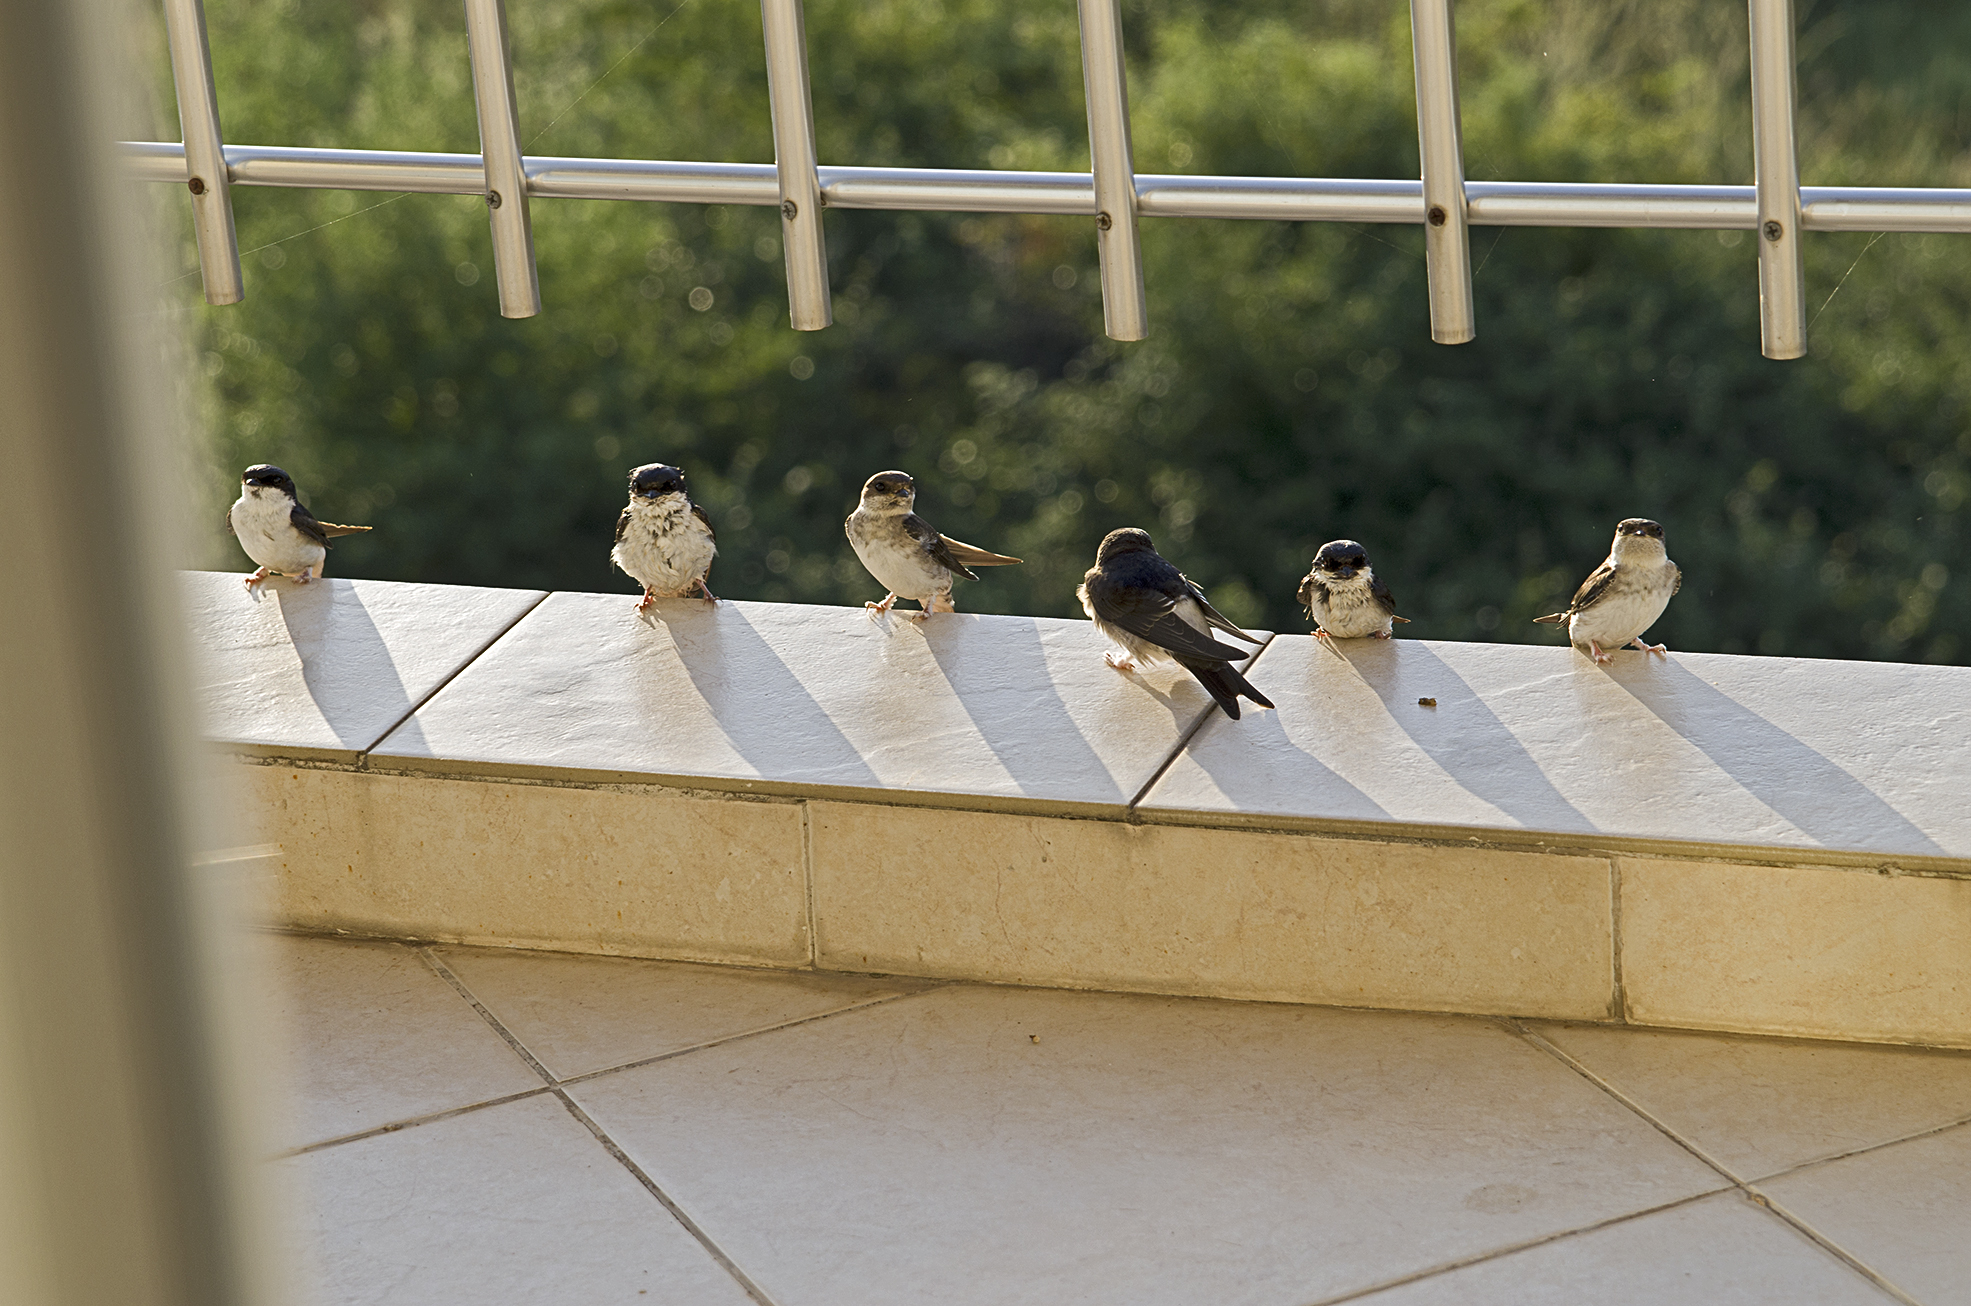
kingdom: Animalia
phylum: Chordata
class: Aves
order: Passeriformes
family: Hirundinidae
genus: Delichon
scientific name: Delichon urbicum
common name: Common house martin
